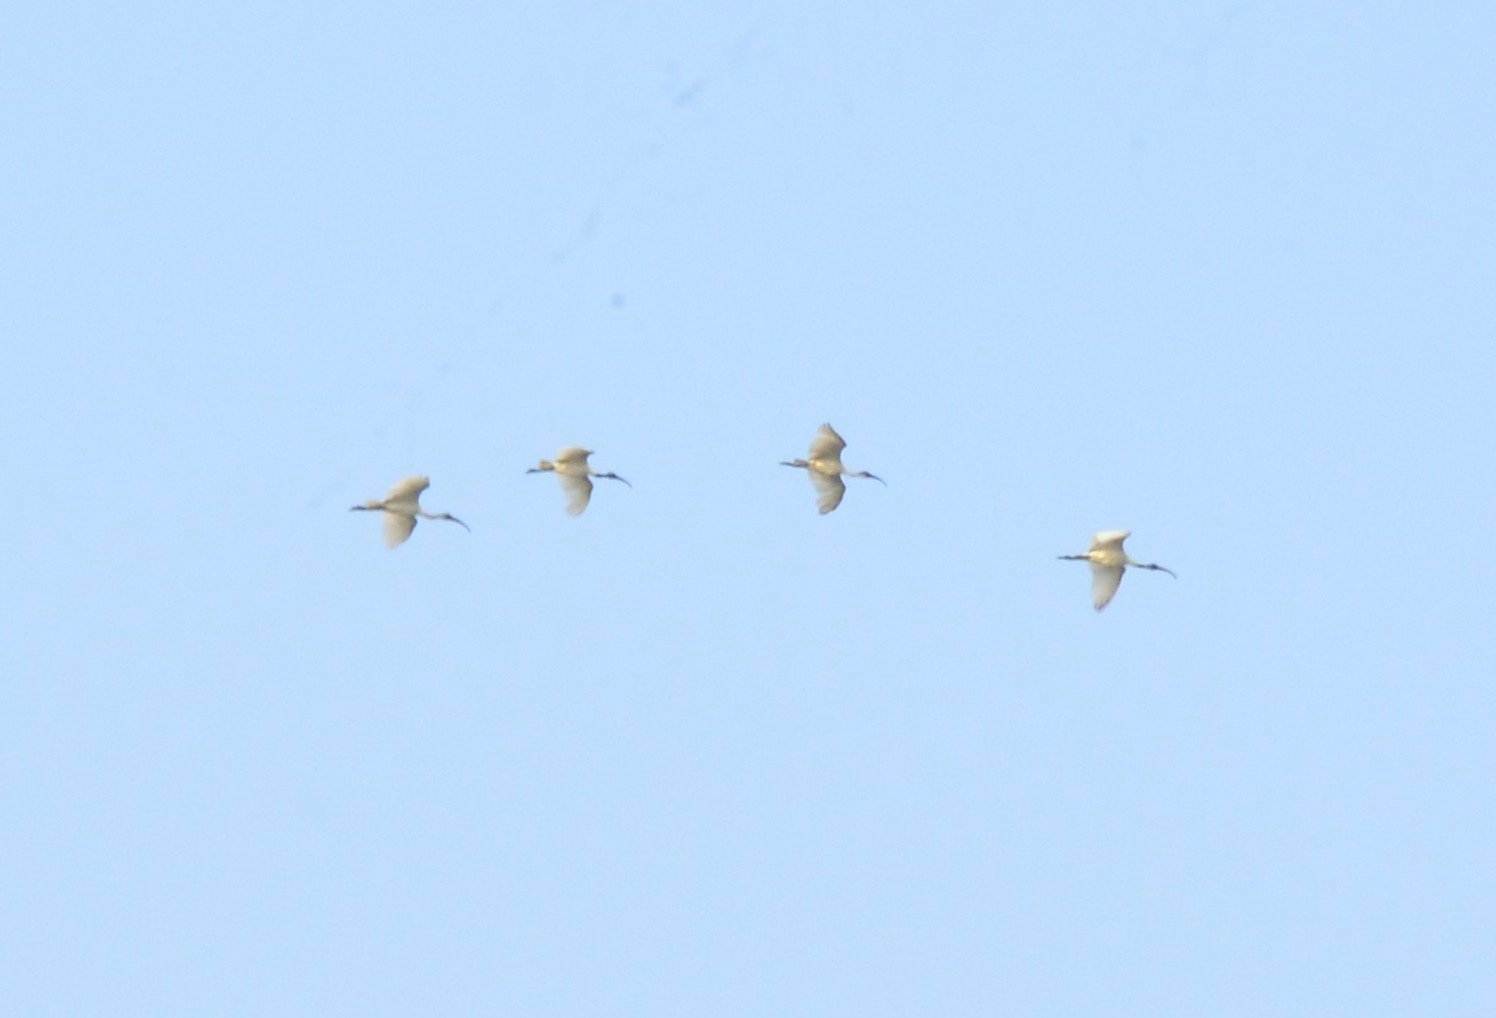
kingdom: Animalia
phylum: Chordata
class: Aves
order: Pelecaniformes
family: Threskiornithidae
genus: Threskiornis
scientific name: Threskiornis melanocephalus
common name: Black-headed ibis
